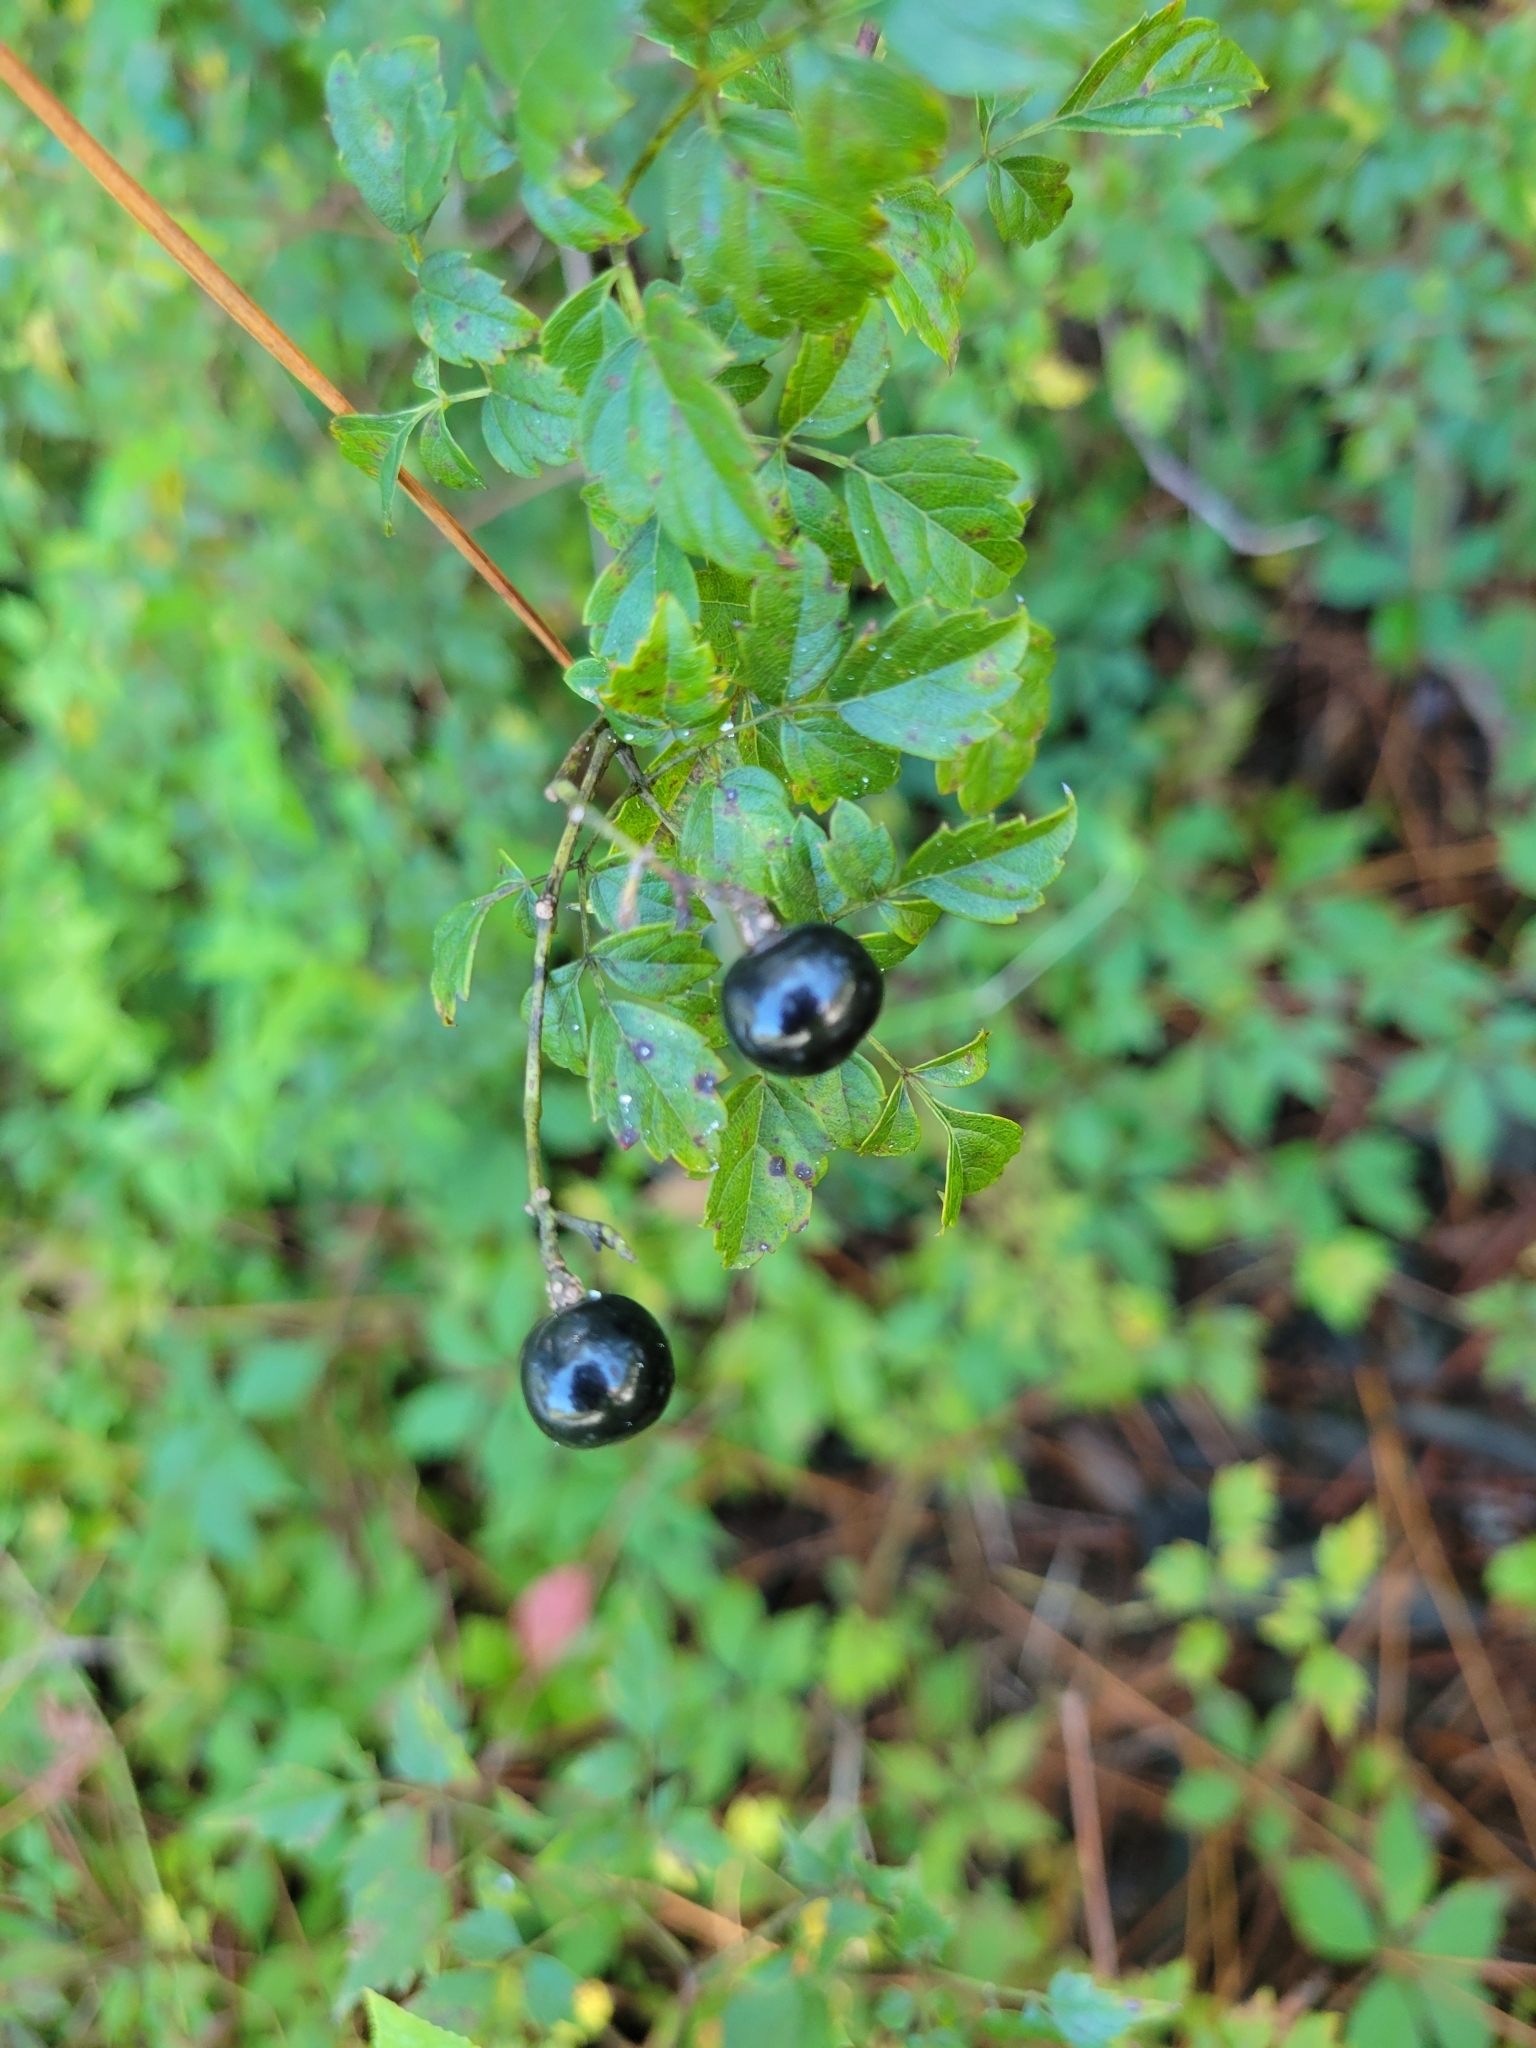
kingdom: Plantae
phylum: Tracheophyta
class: Magnoliopsida
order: Vitales
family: Vitaceae
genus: Nekemias
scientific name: Nekemias arborea
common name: Peppervine
